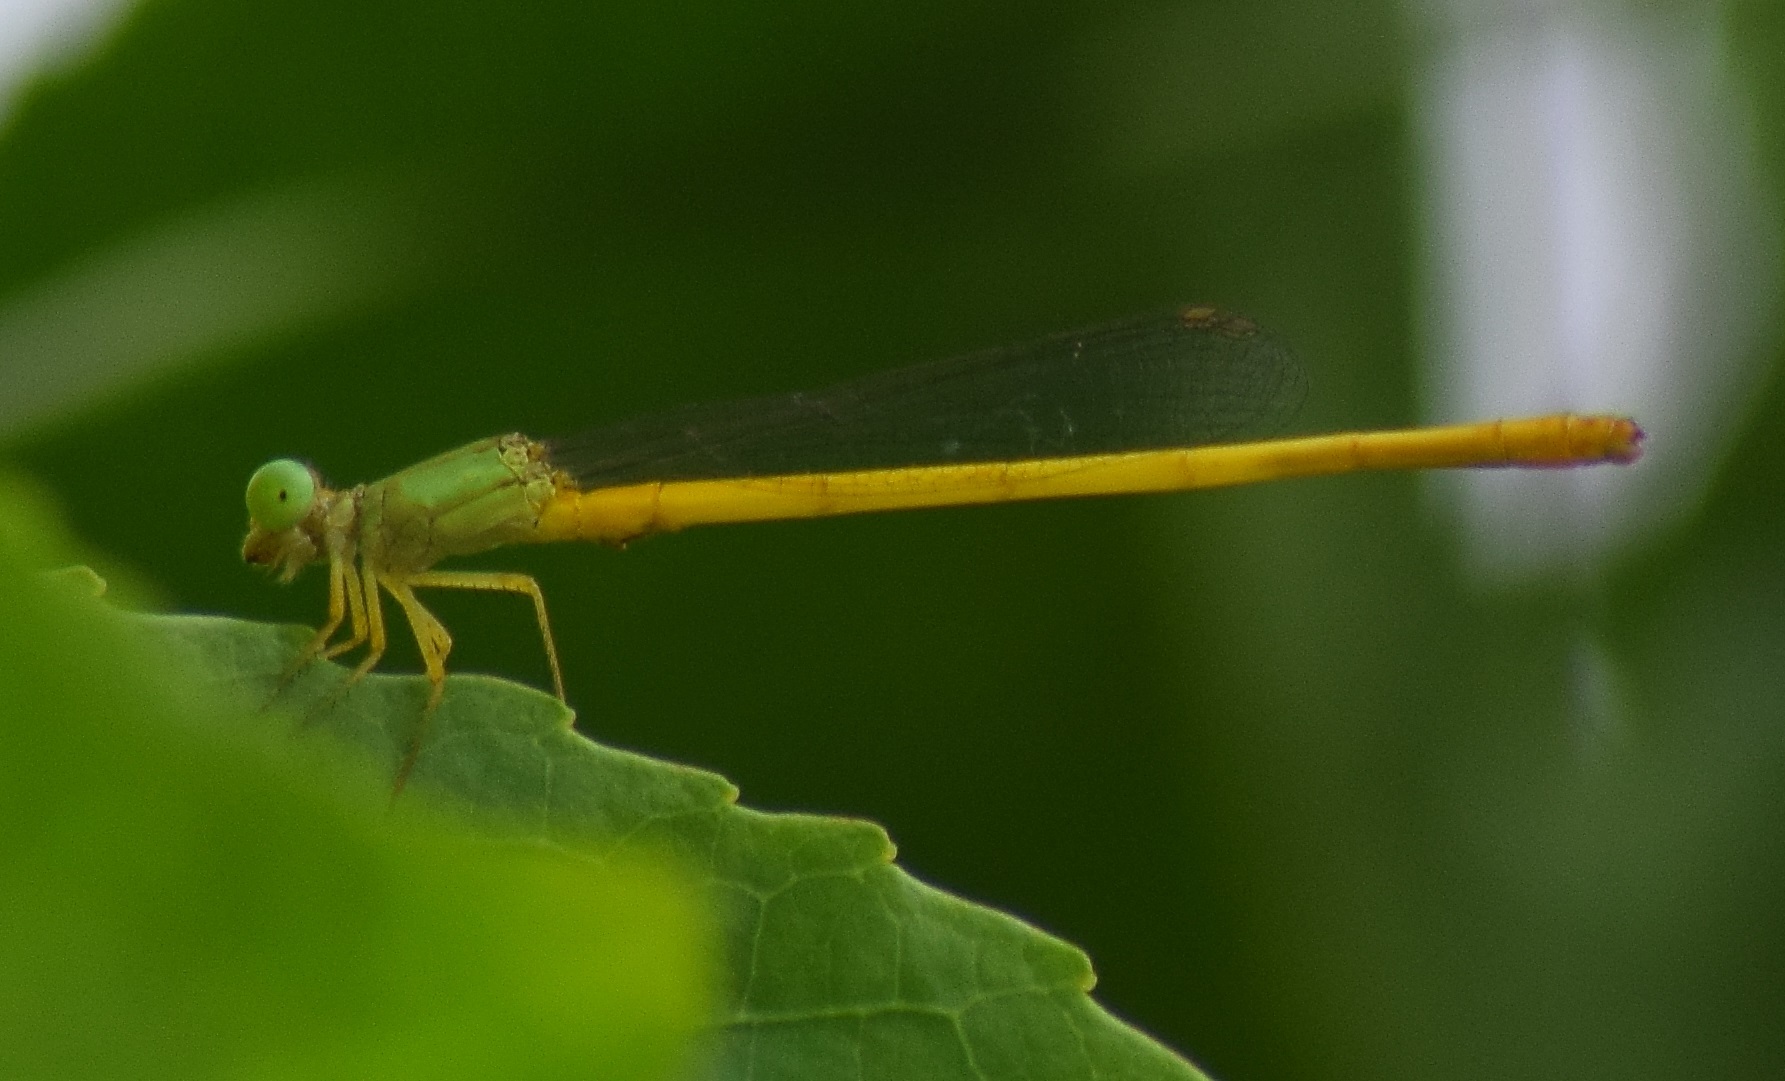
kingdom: Animalia
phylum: Arthropoda
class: Insecta
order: Odonata
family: Coenagrionidae
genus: Ceriagrion
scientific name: Ceriagrion coromandelianum
